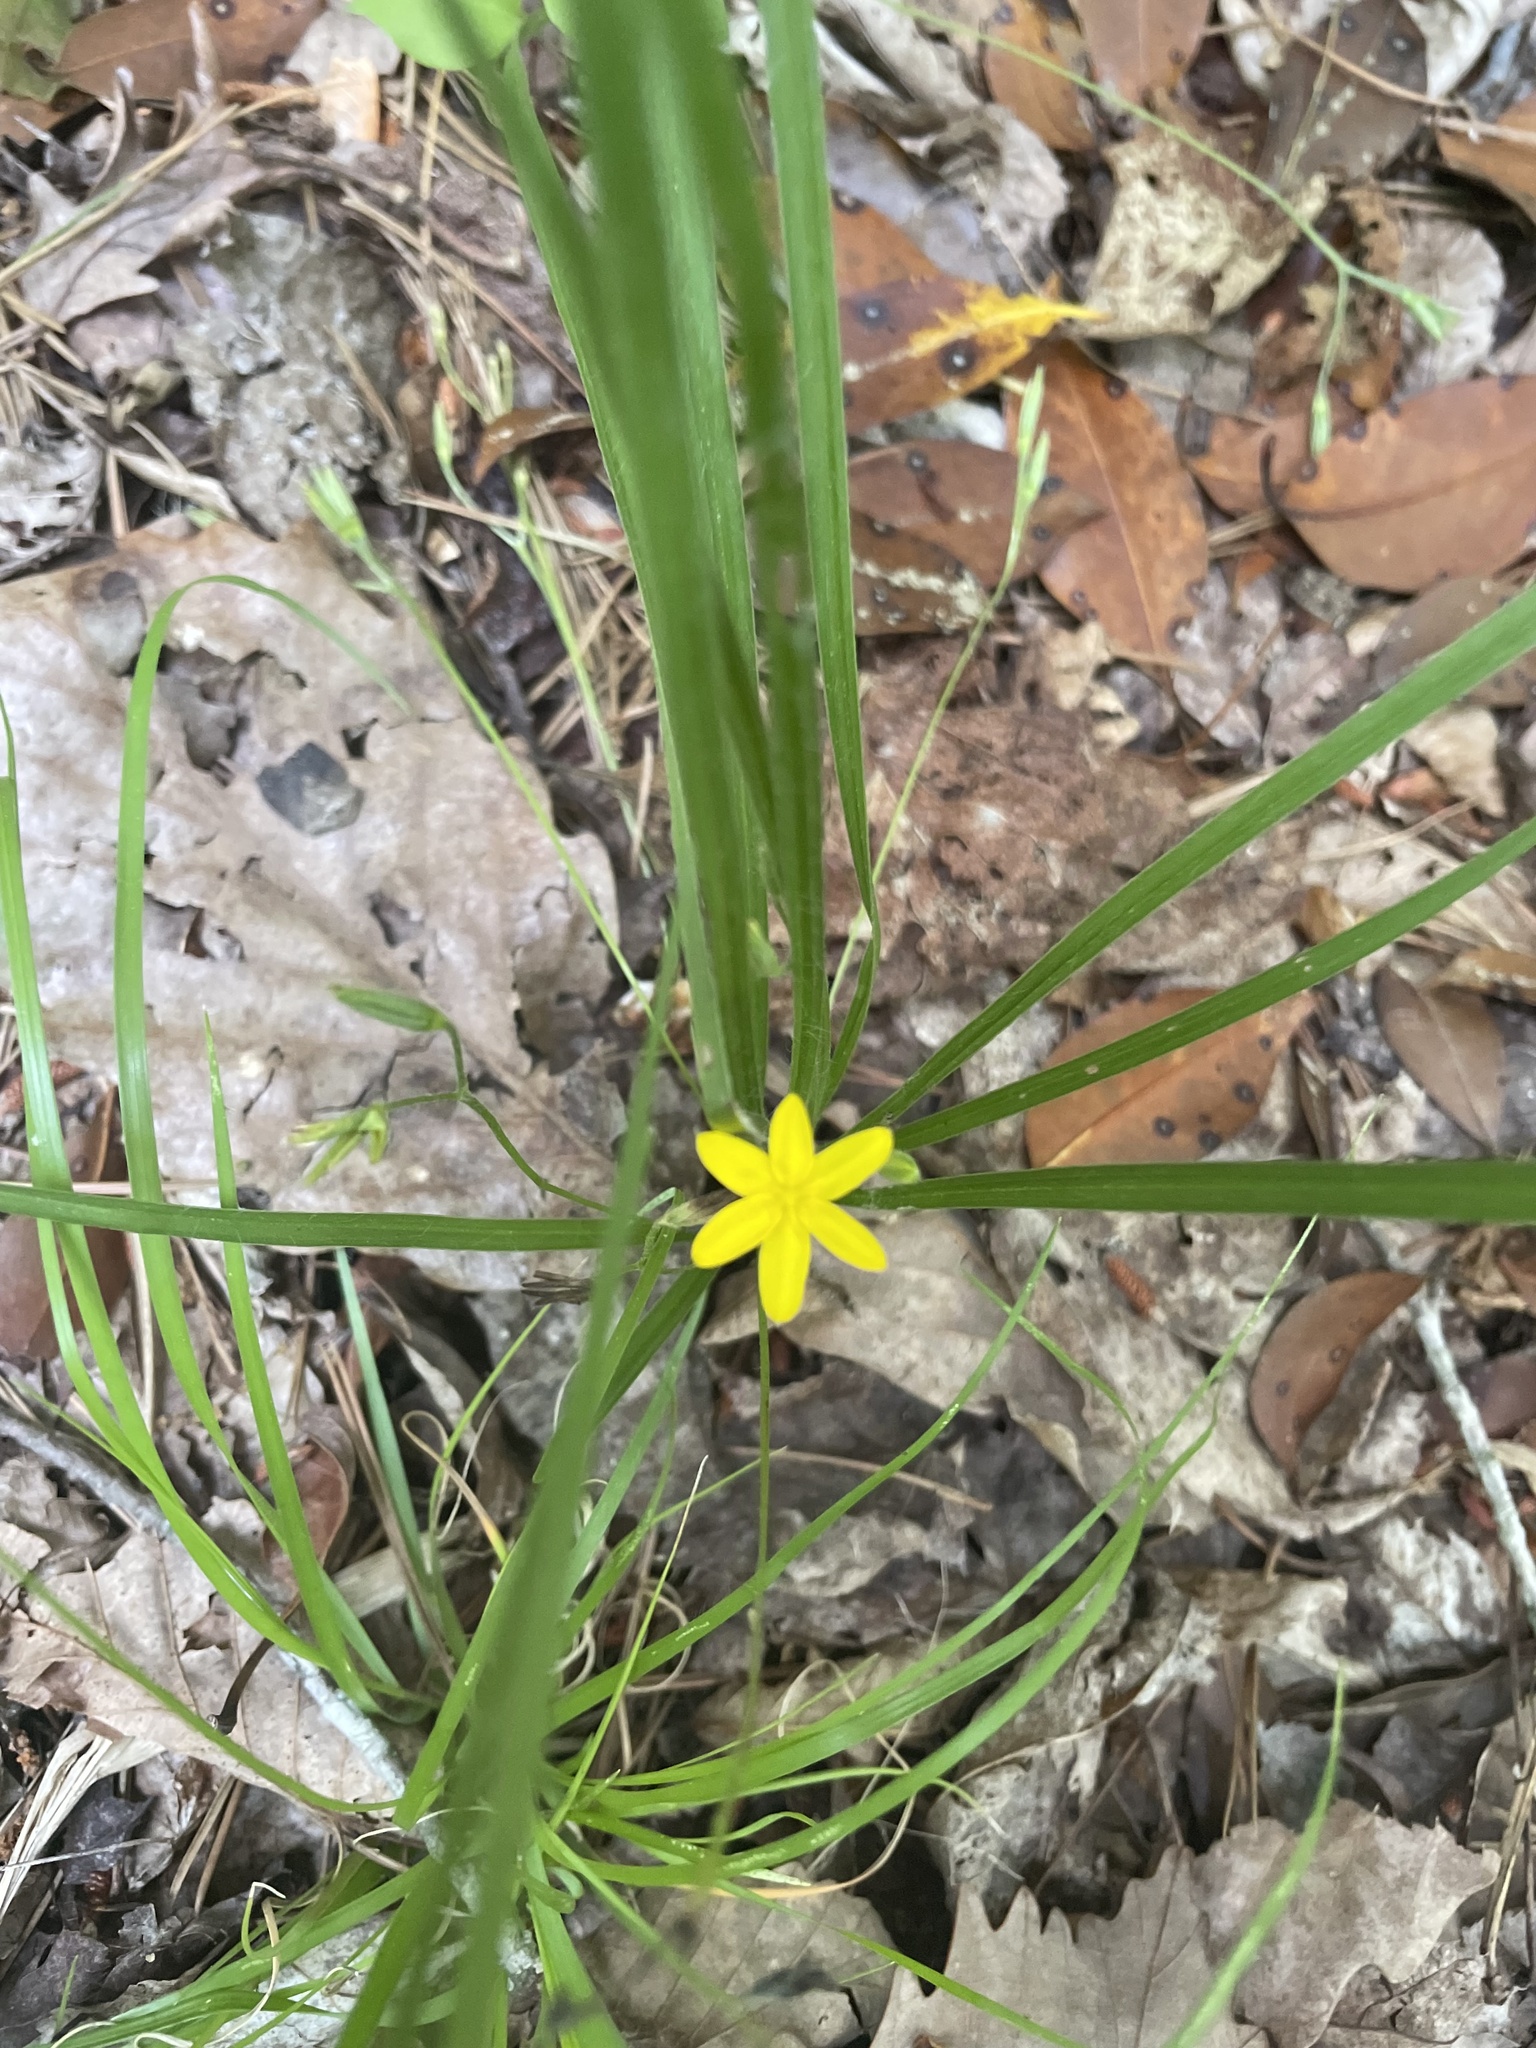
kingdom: Plantae
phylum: Tracheophyta
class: Liliopsida
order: Asparagales
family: Hypoxidaceae
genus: Hypoxis
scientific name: Hypoxis hirsuta
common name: Common goldstar
